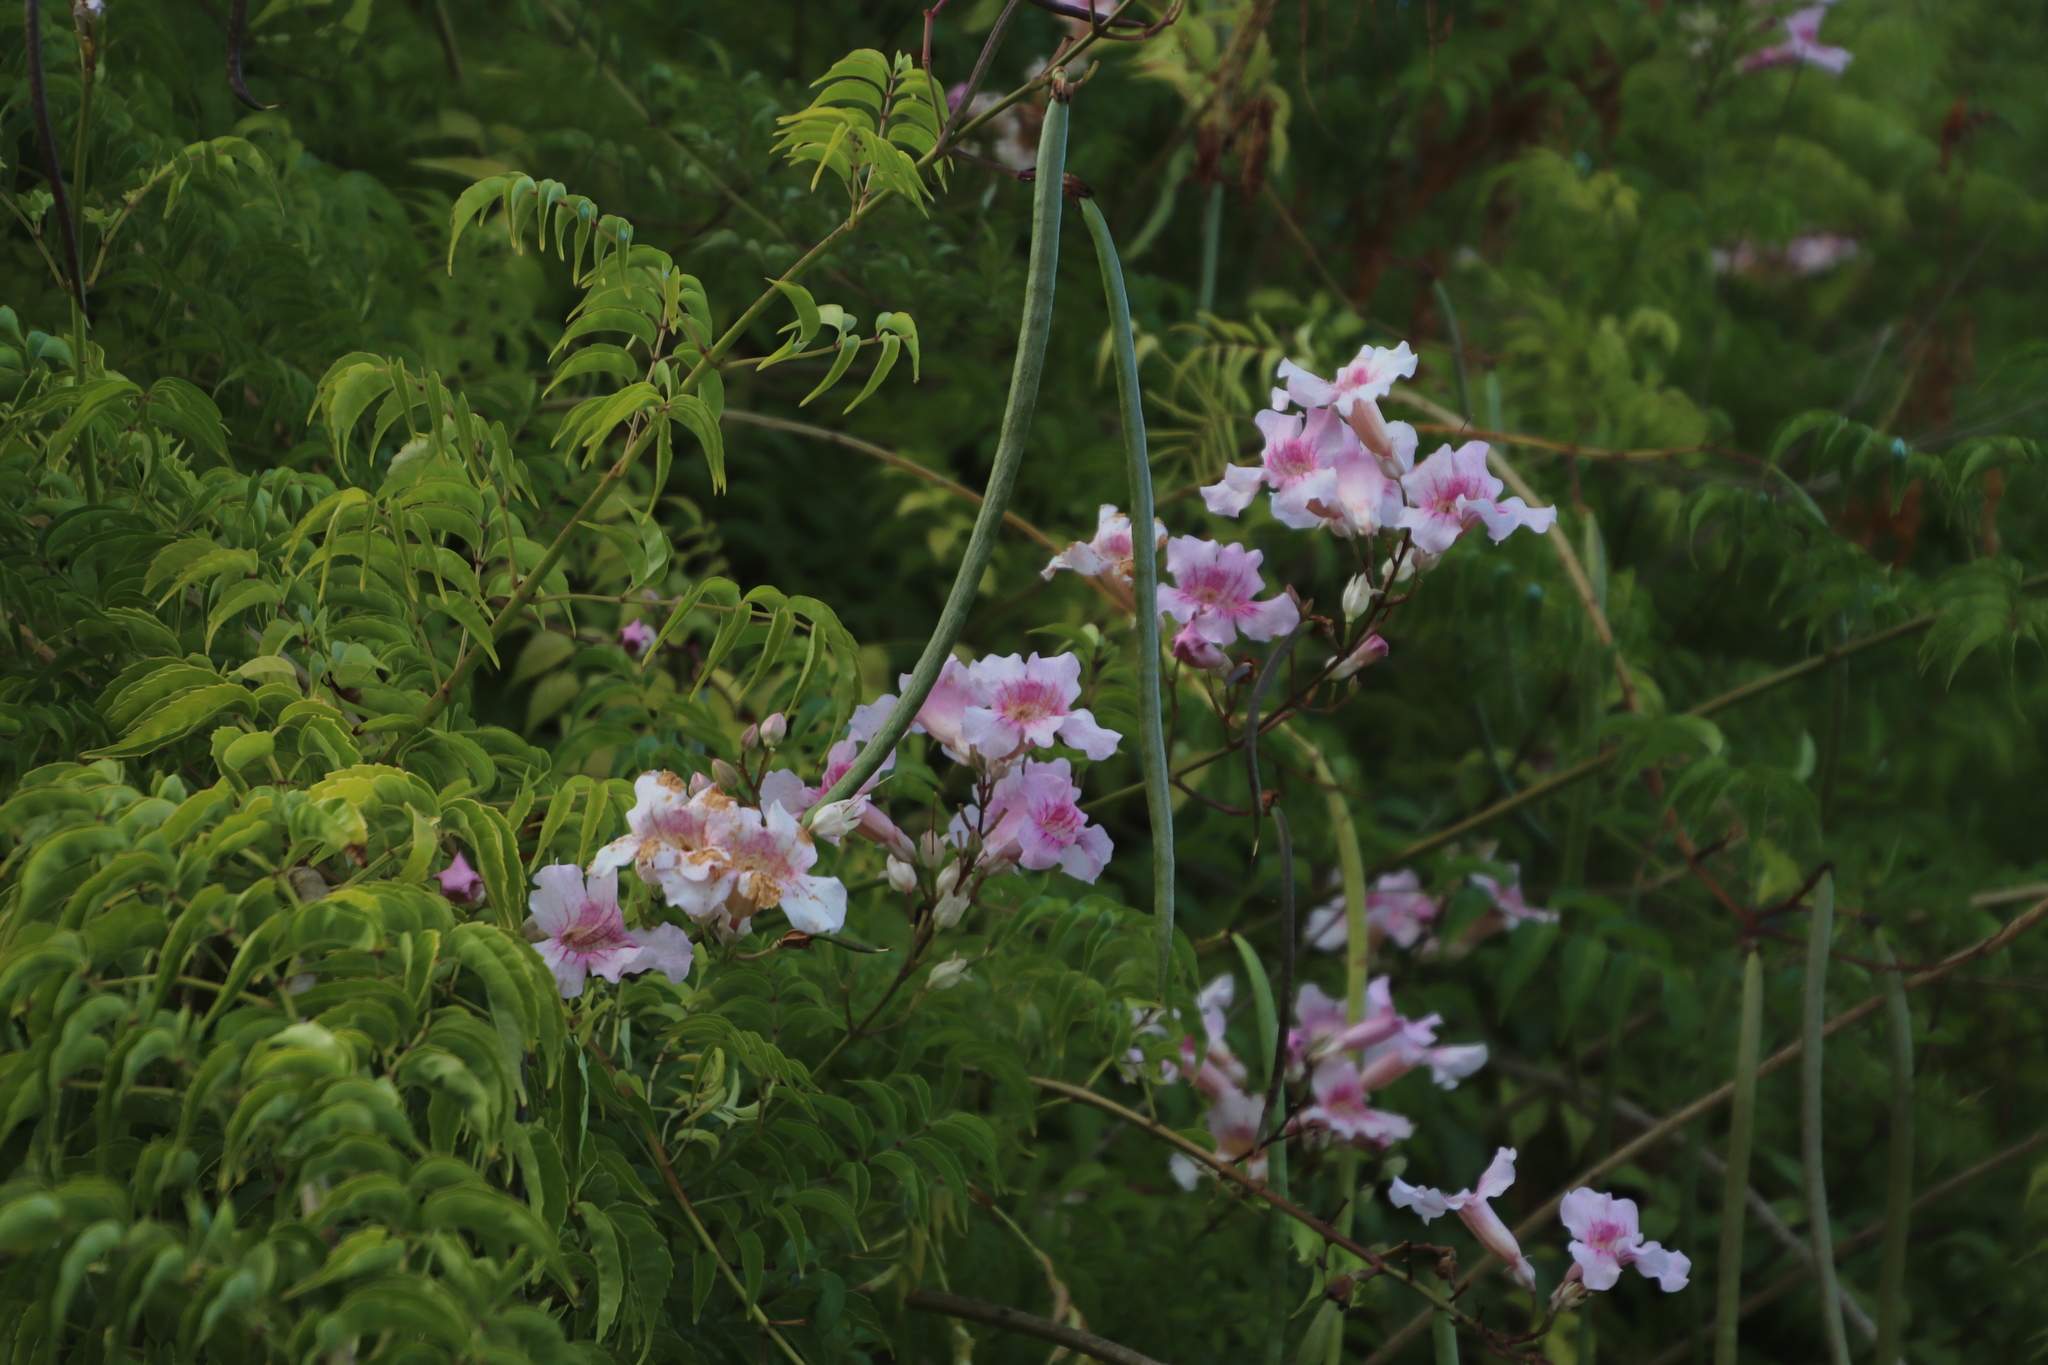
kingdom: Plantae
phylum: Tracheophyta
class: Magnoliopsida
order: Lamiales
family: Bignoniaceae
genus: Podranea
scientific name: Podranea ricasoliana
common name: Zimbabwe creeper
